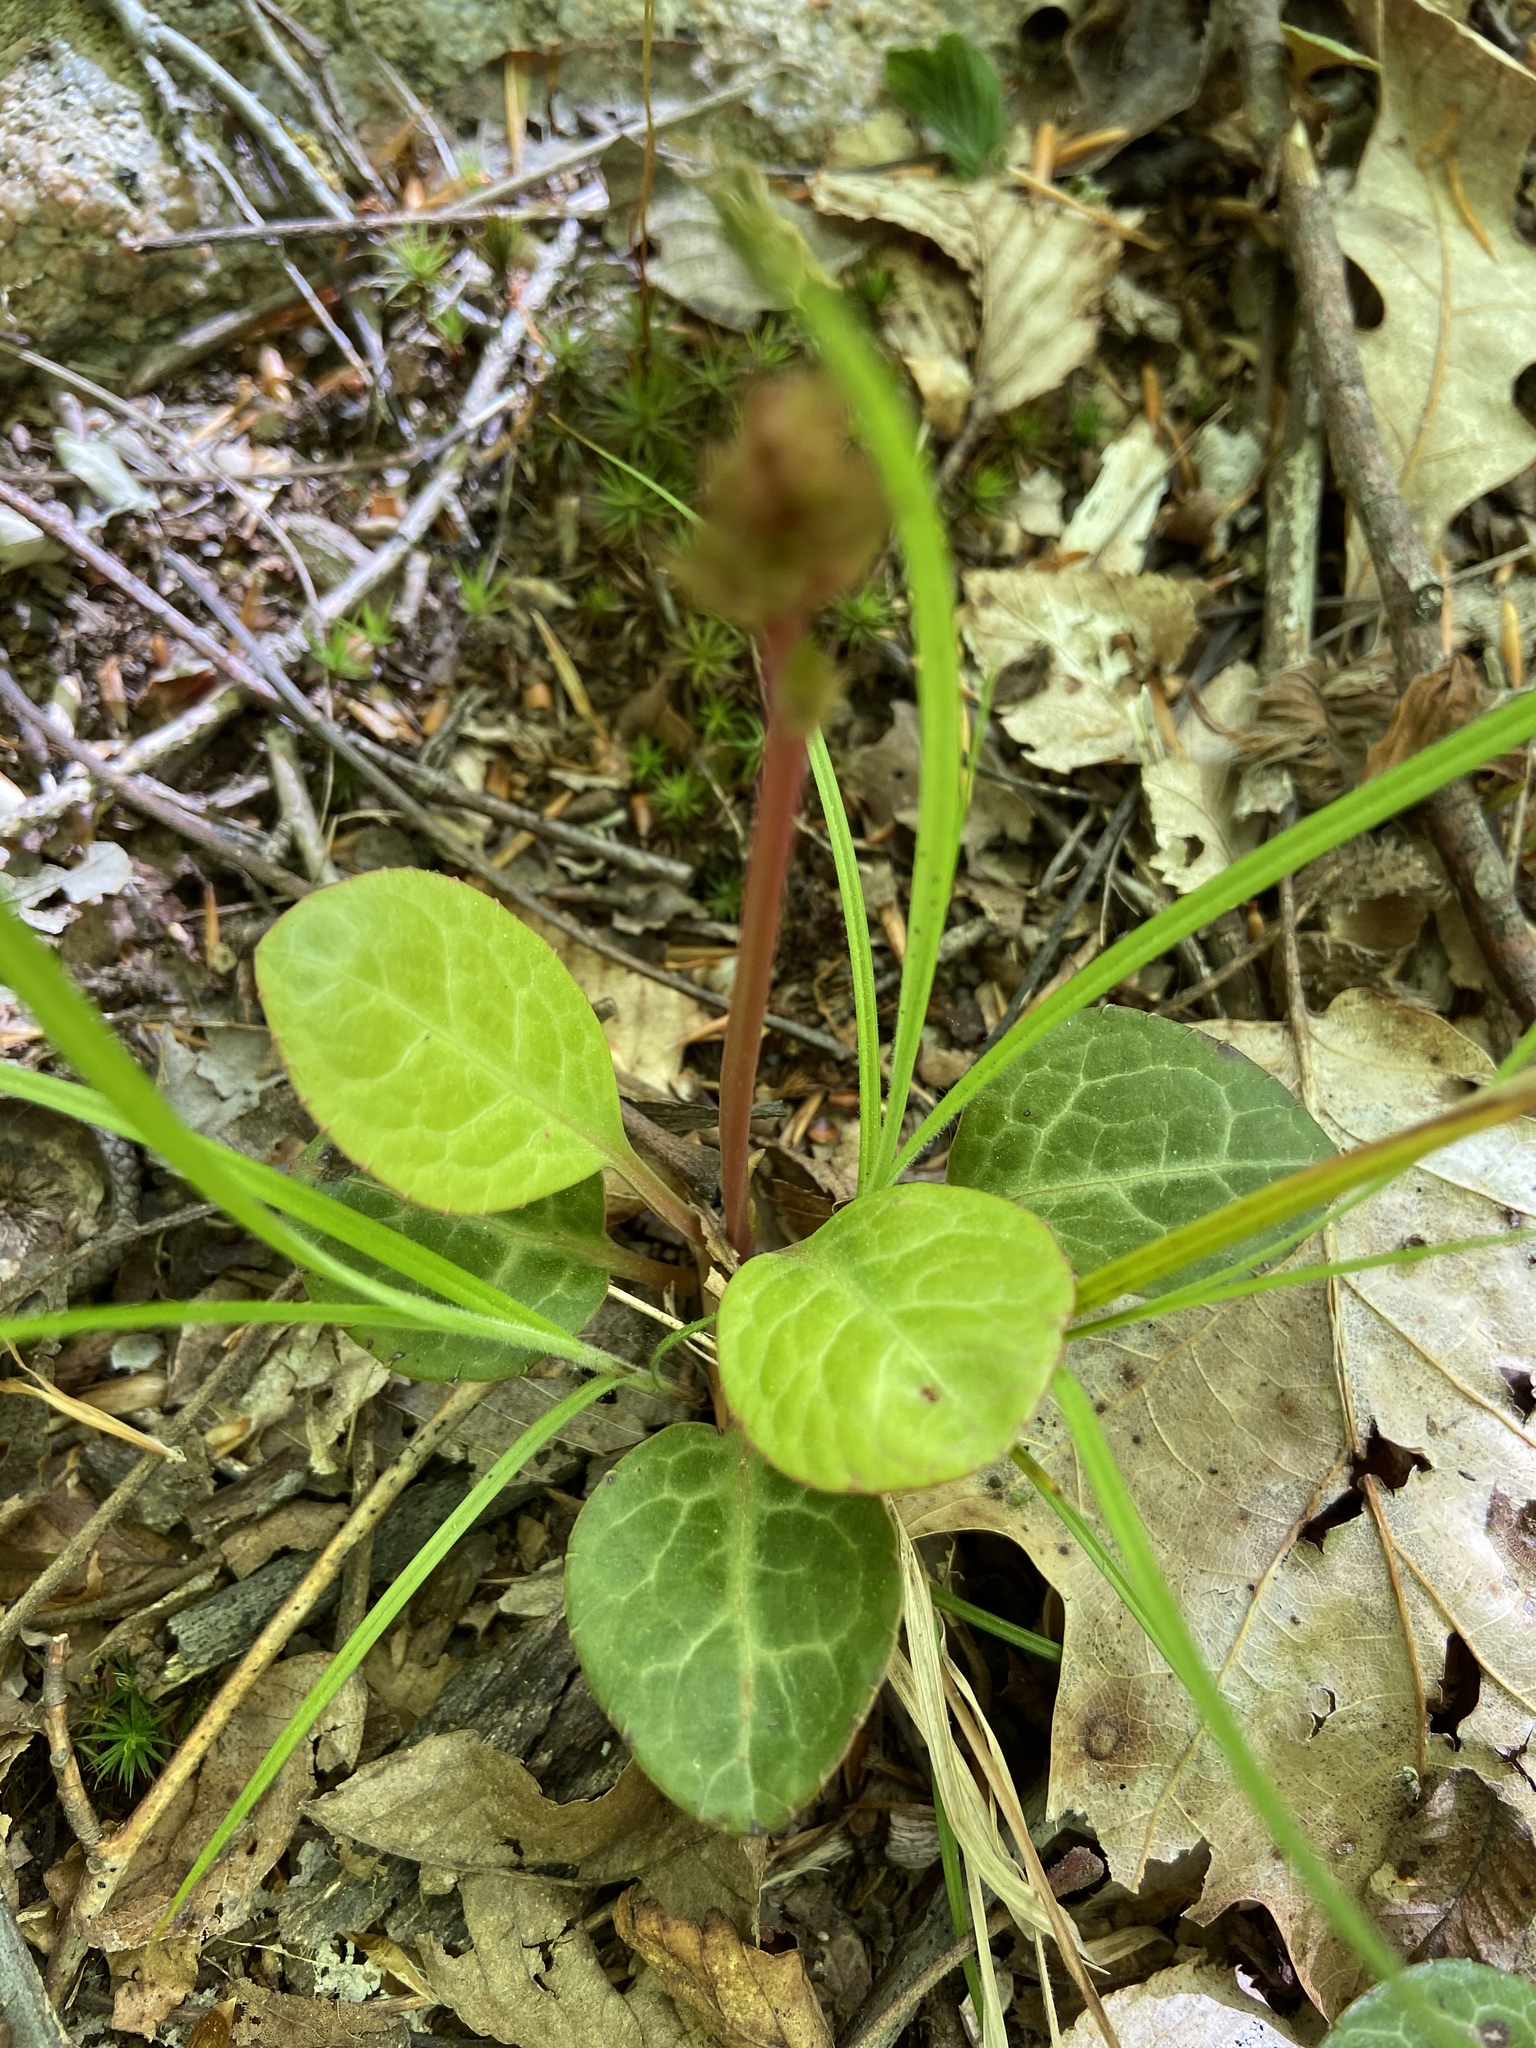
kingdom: Plantae
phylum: Tracheophyta
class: Magnoliopsida
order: Ericales
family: Ericaceae
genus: Pyrola
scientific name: Pyrola americana
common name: American wintergreen
